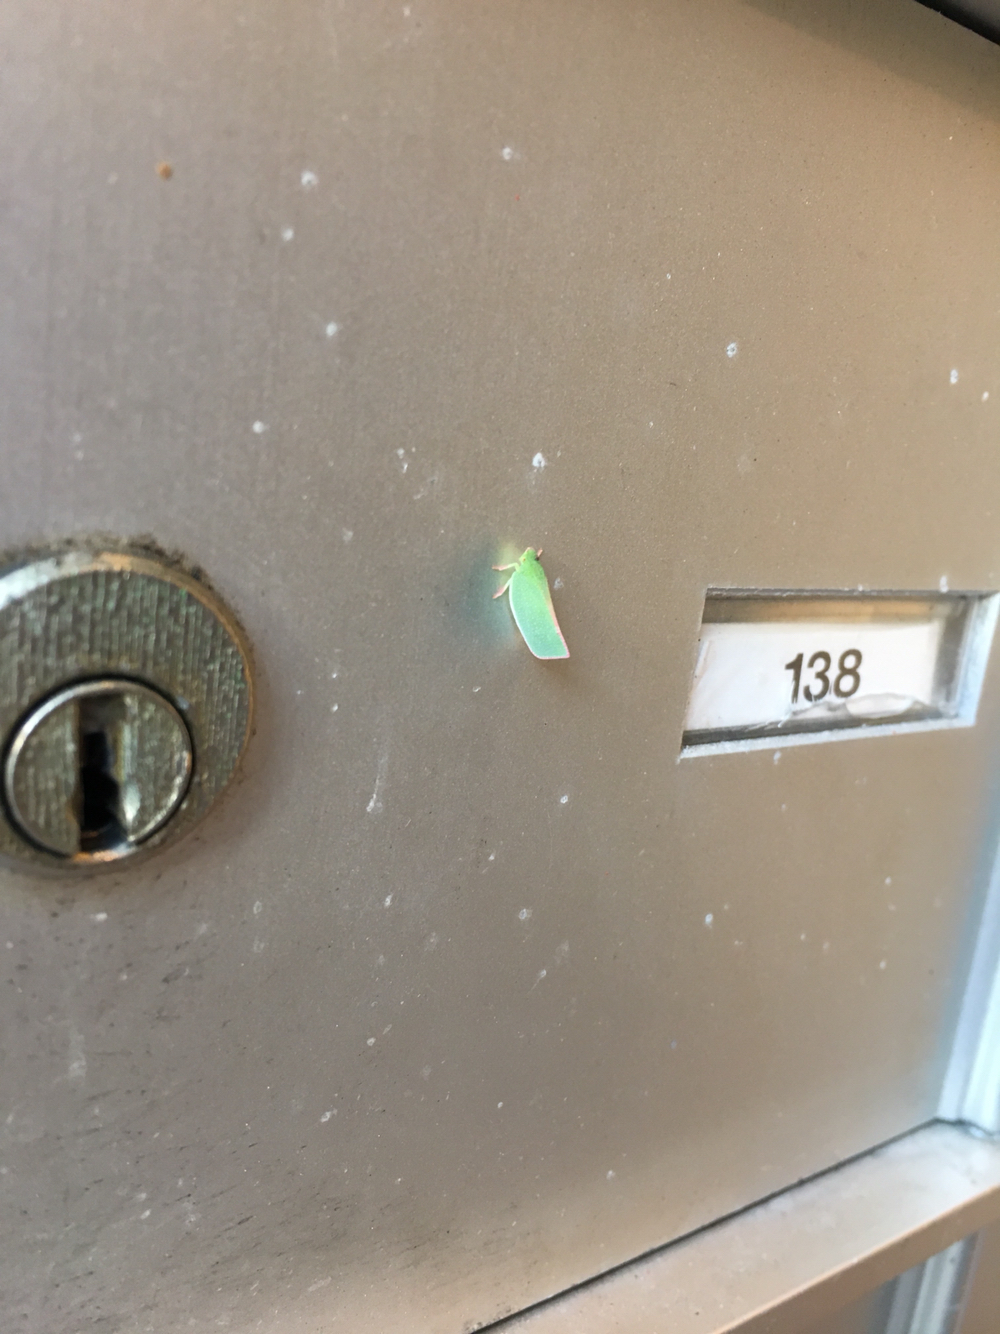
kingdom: Animalia
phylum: Arthropoda
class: Insecta
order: Hemiptera
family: Flatidae
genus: Siphanta
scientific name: Siphanta acuta
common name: Torpedo bug
